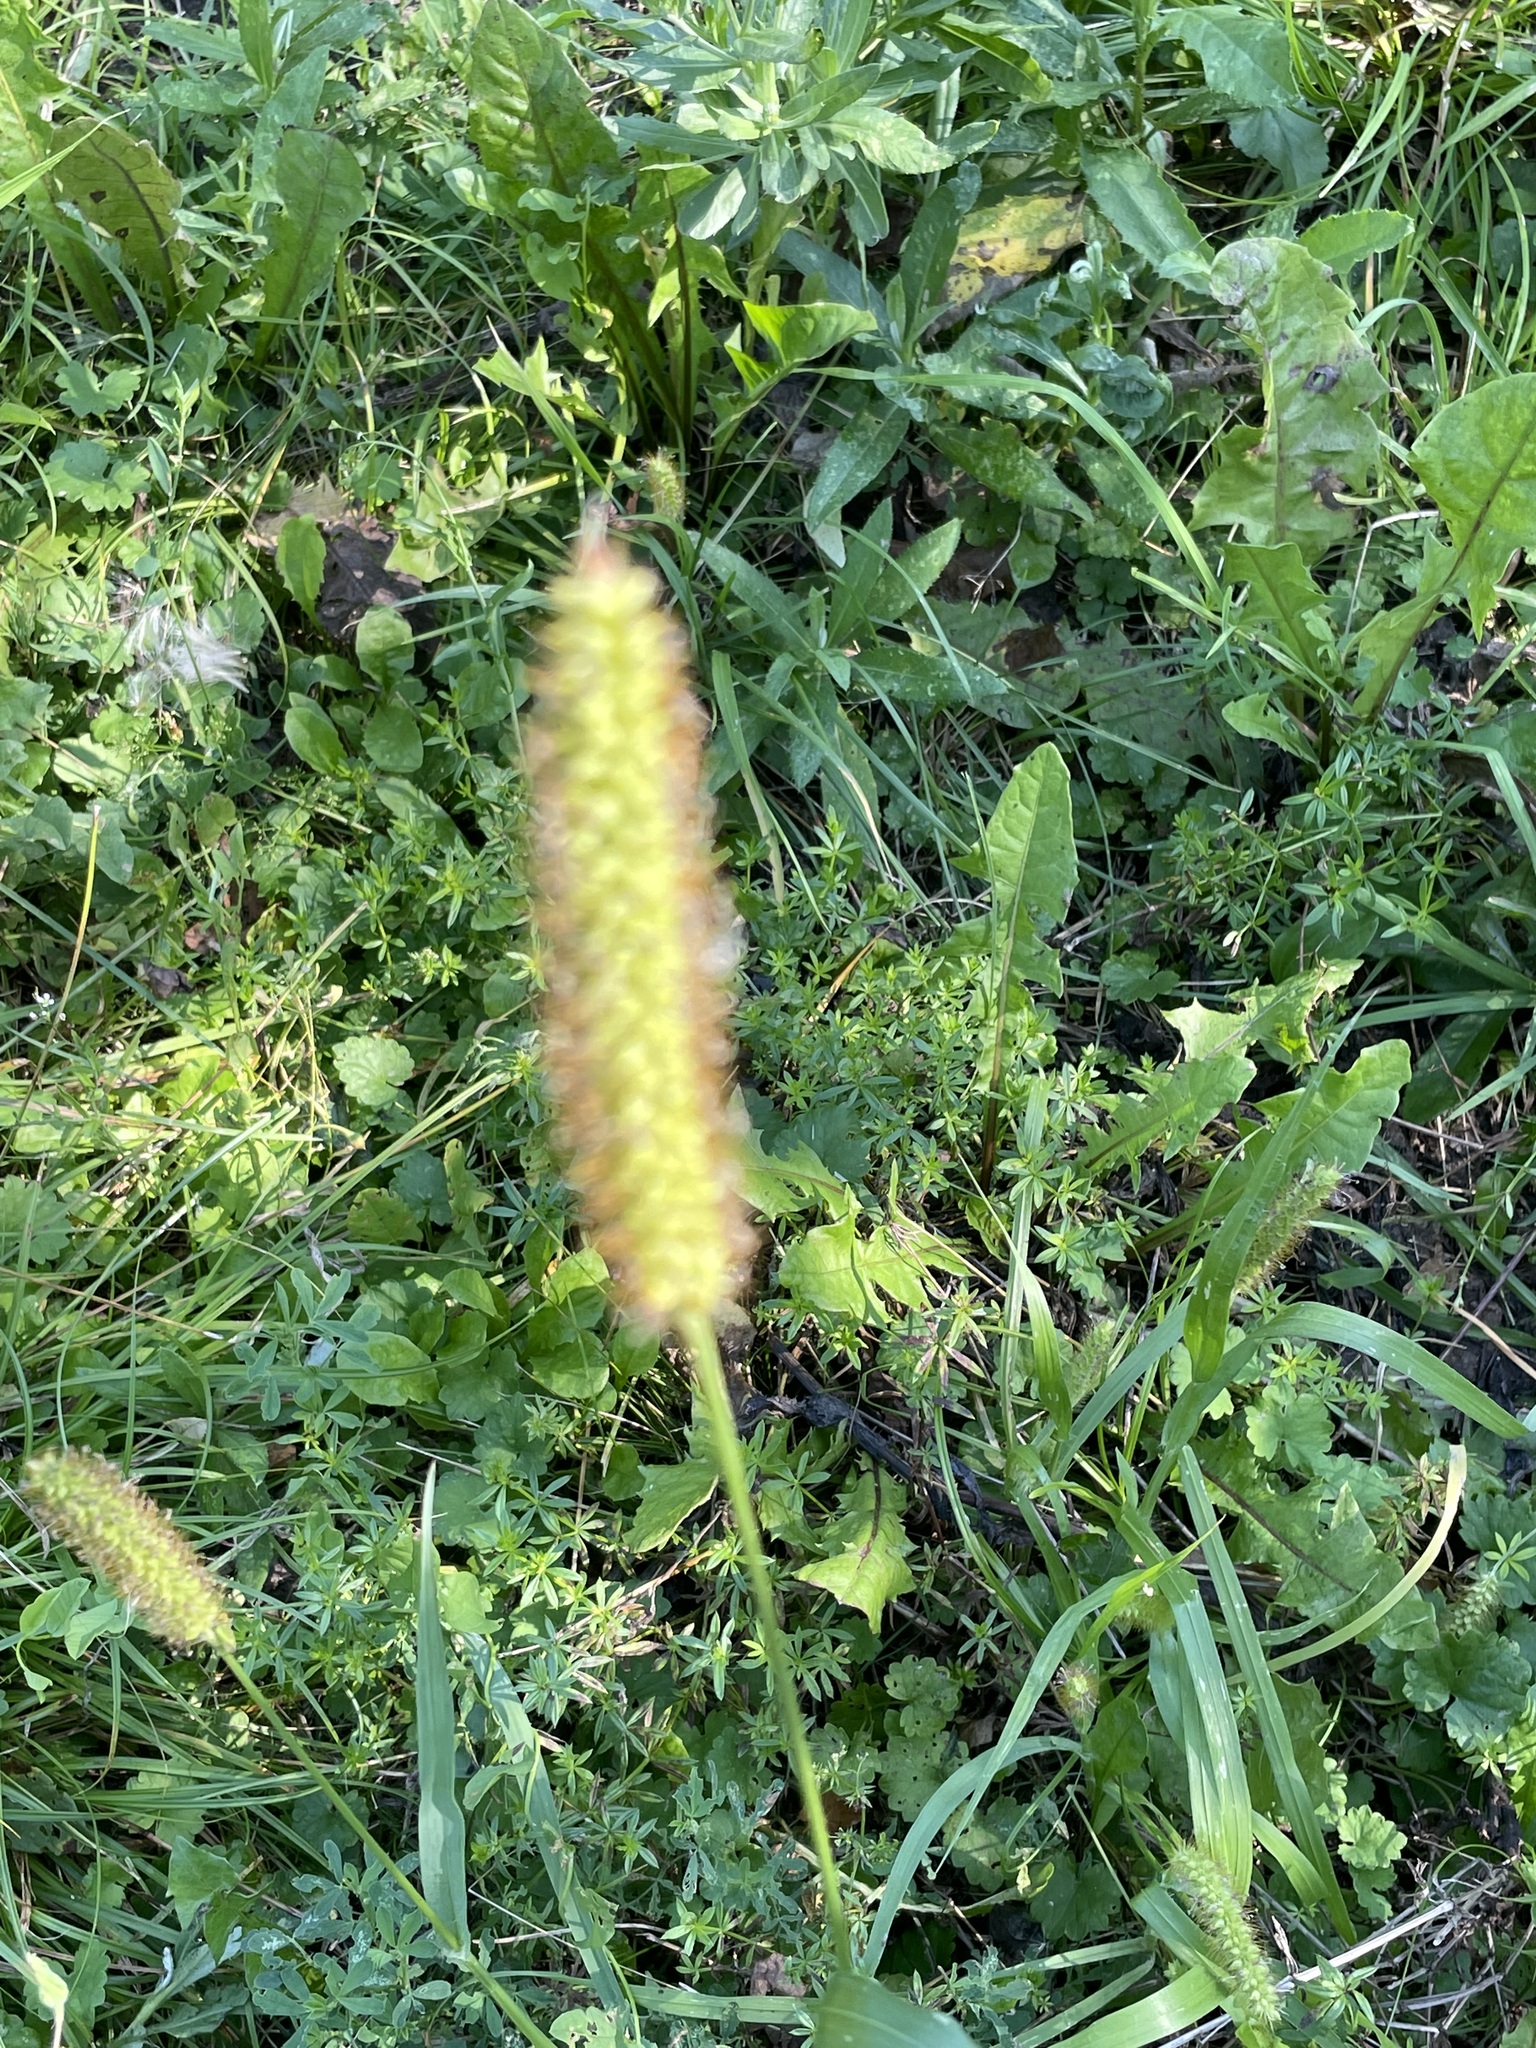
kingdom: Plantae
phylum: Tracheophyta
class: Liliopsida
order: Poales
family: Poaceae
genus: Setaria
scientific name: Setaria pumila
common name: Yellow bristle-grass
